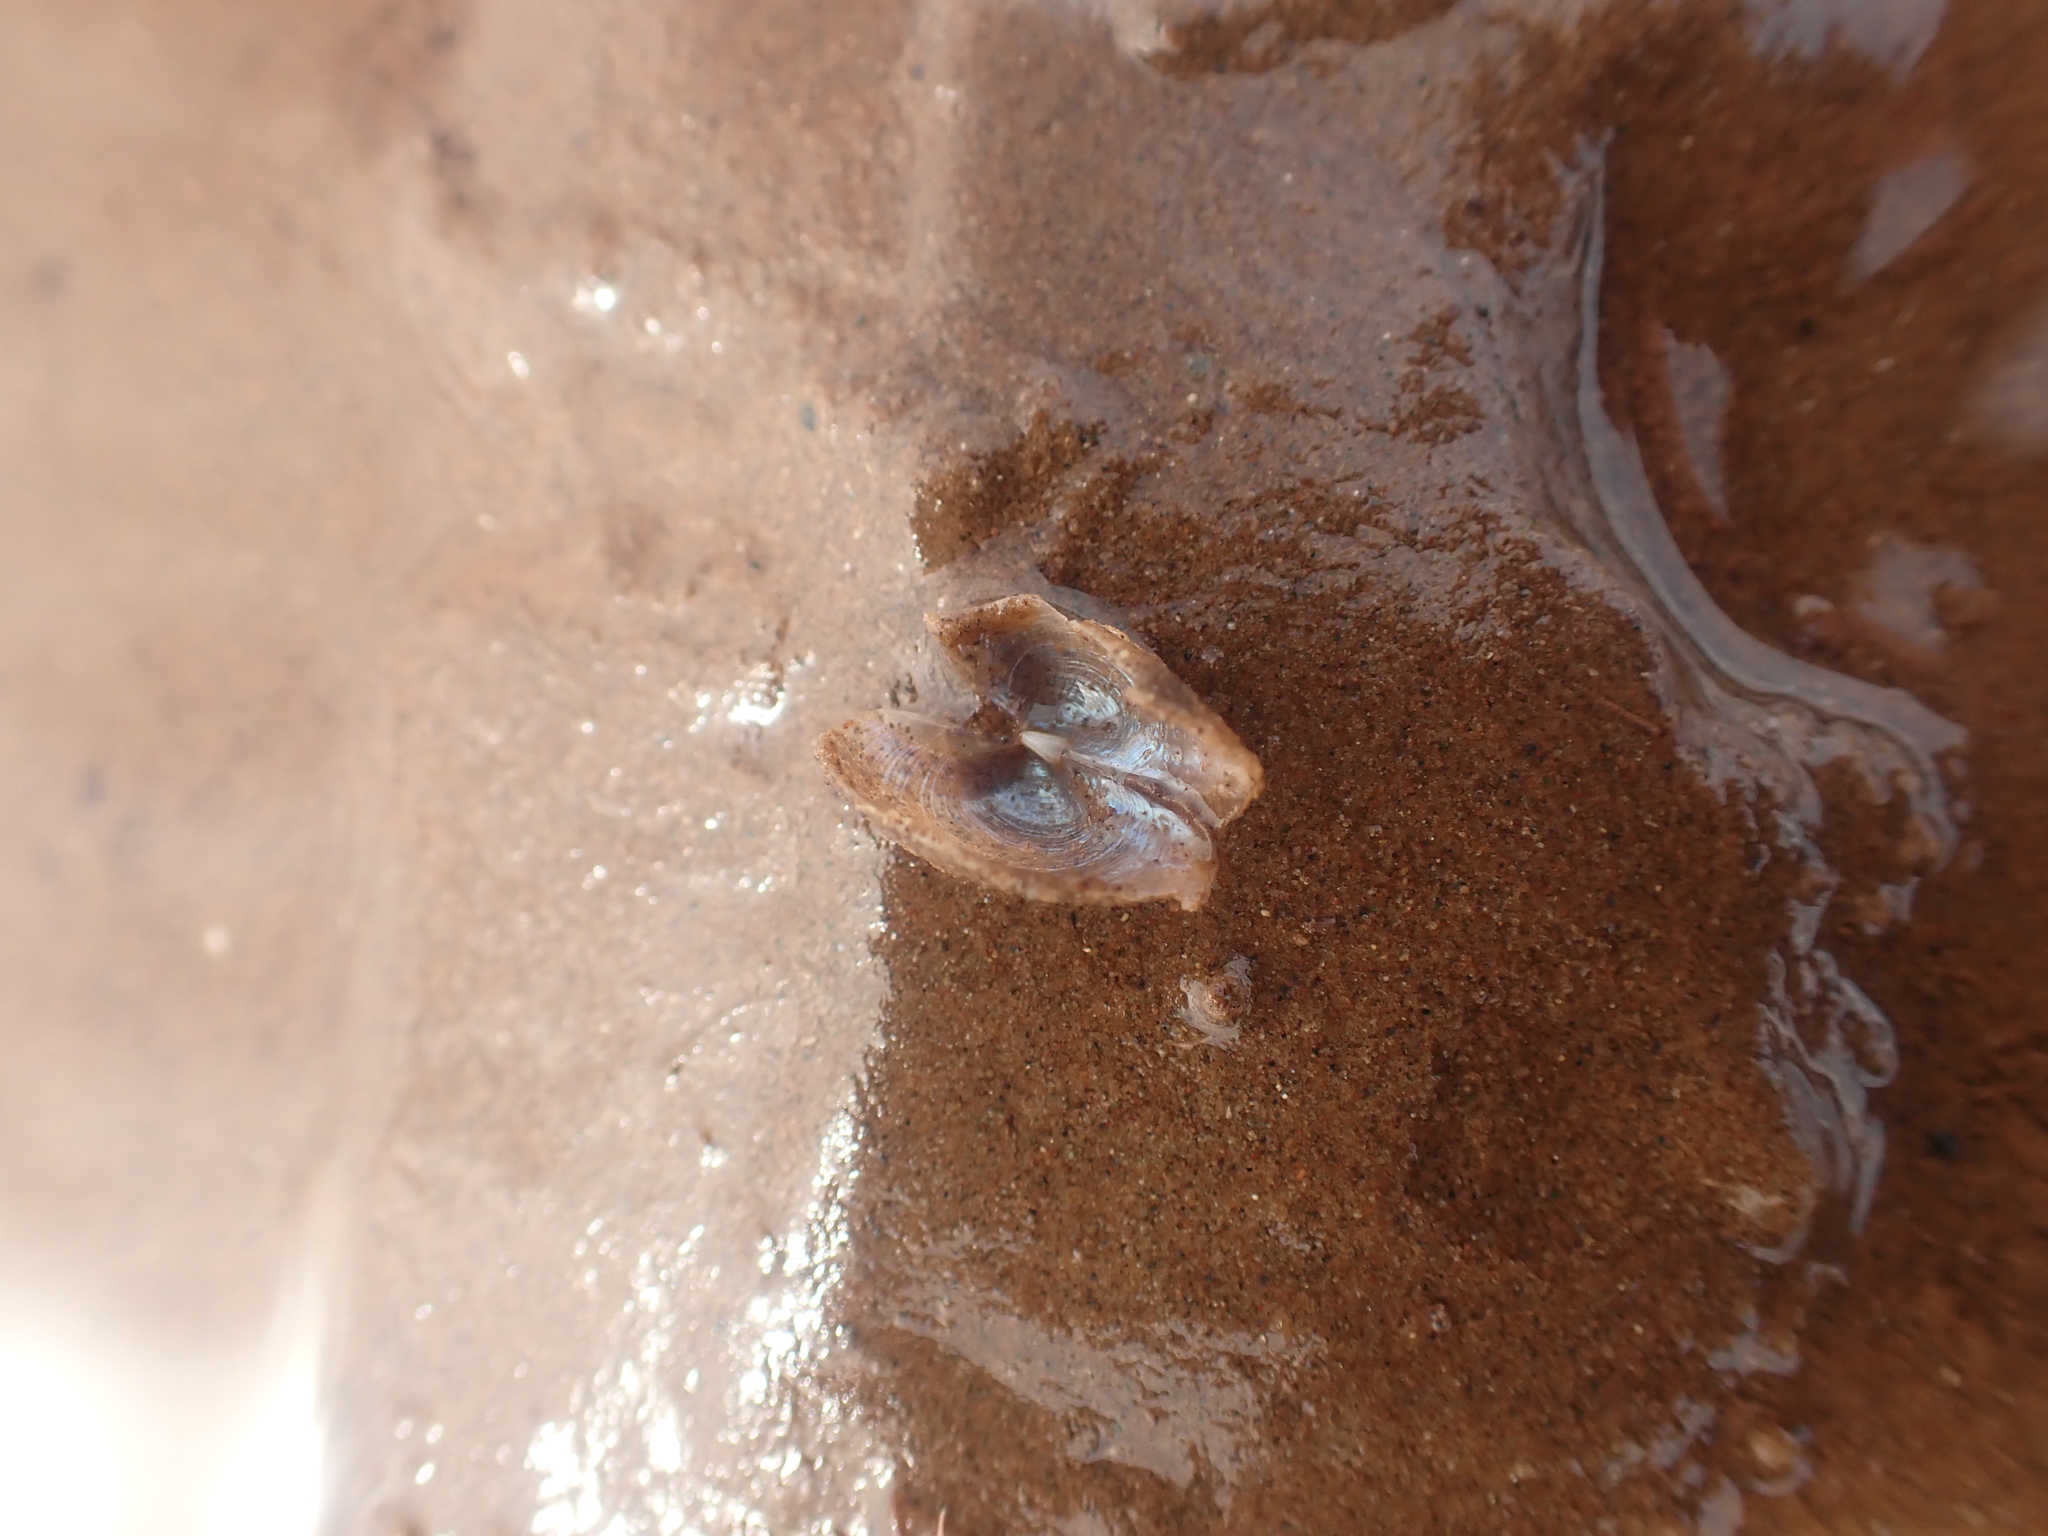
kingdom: Animalia
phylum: Mollusca
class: Bivalvia
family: Lyonsiidae
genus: Lyonsia
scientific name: Lyonsia hyalina
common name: Glassy lyonsia
